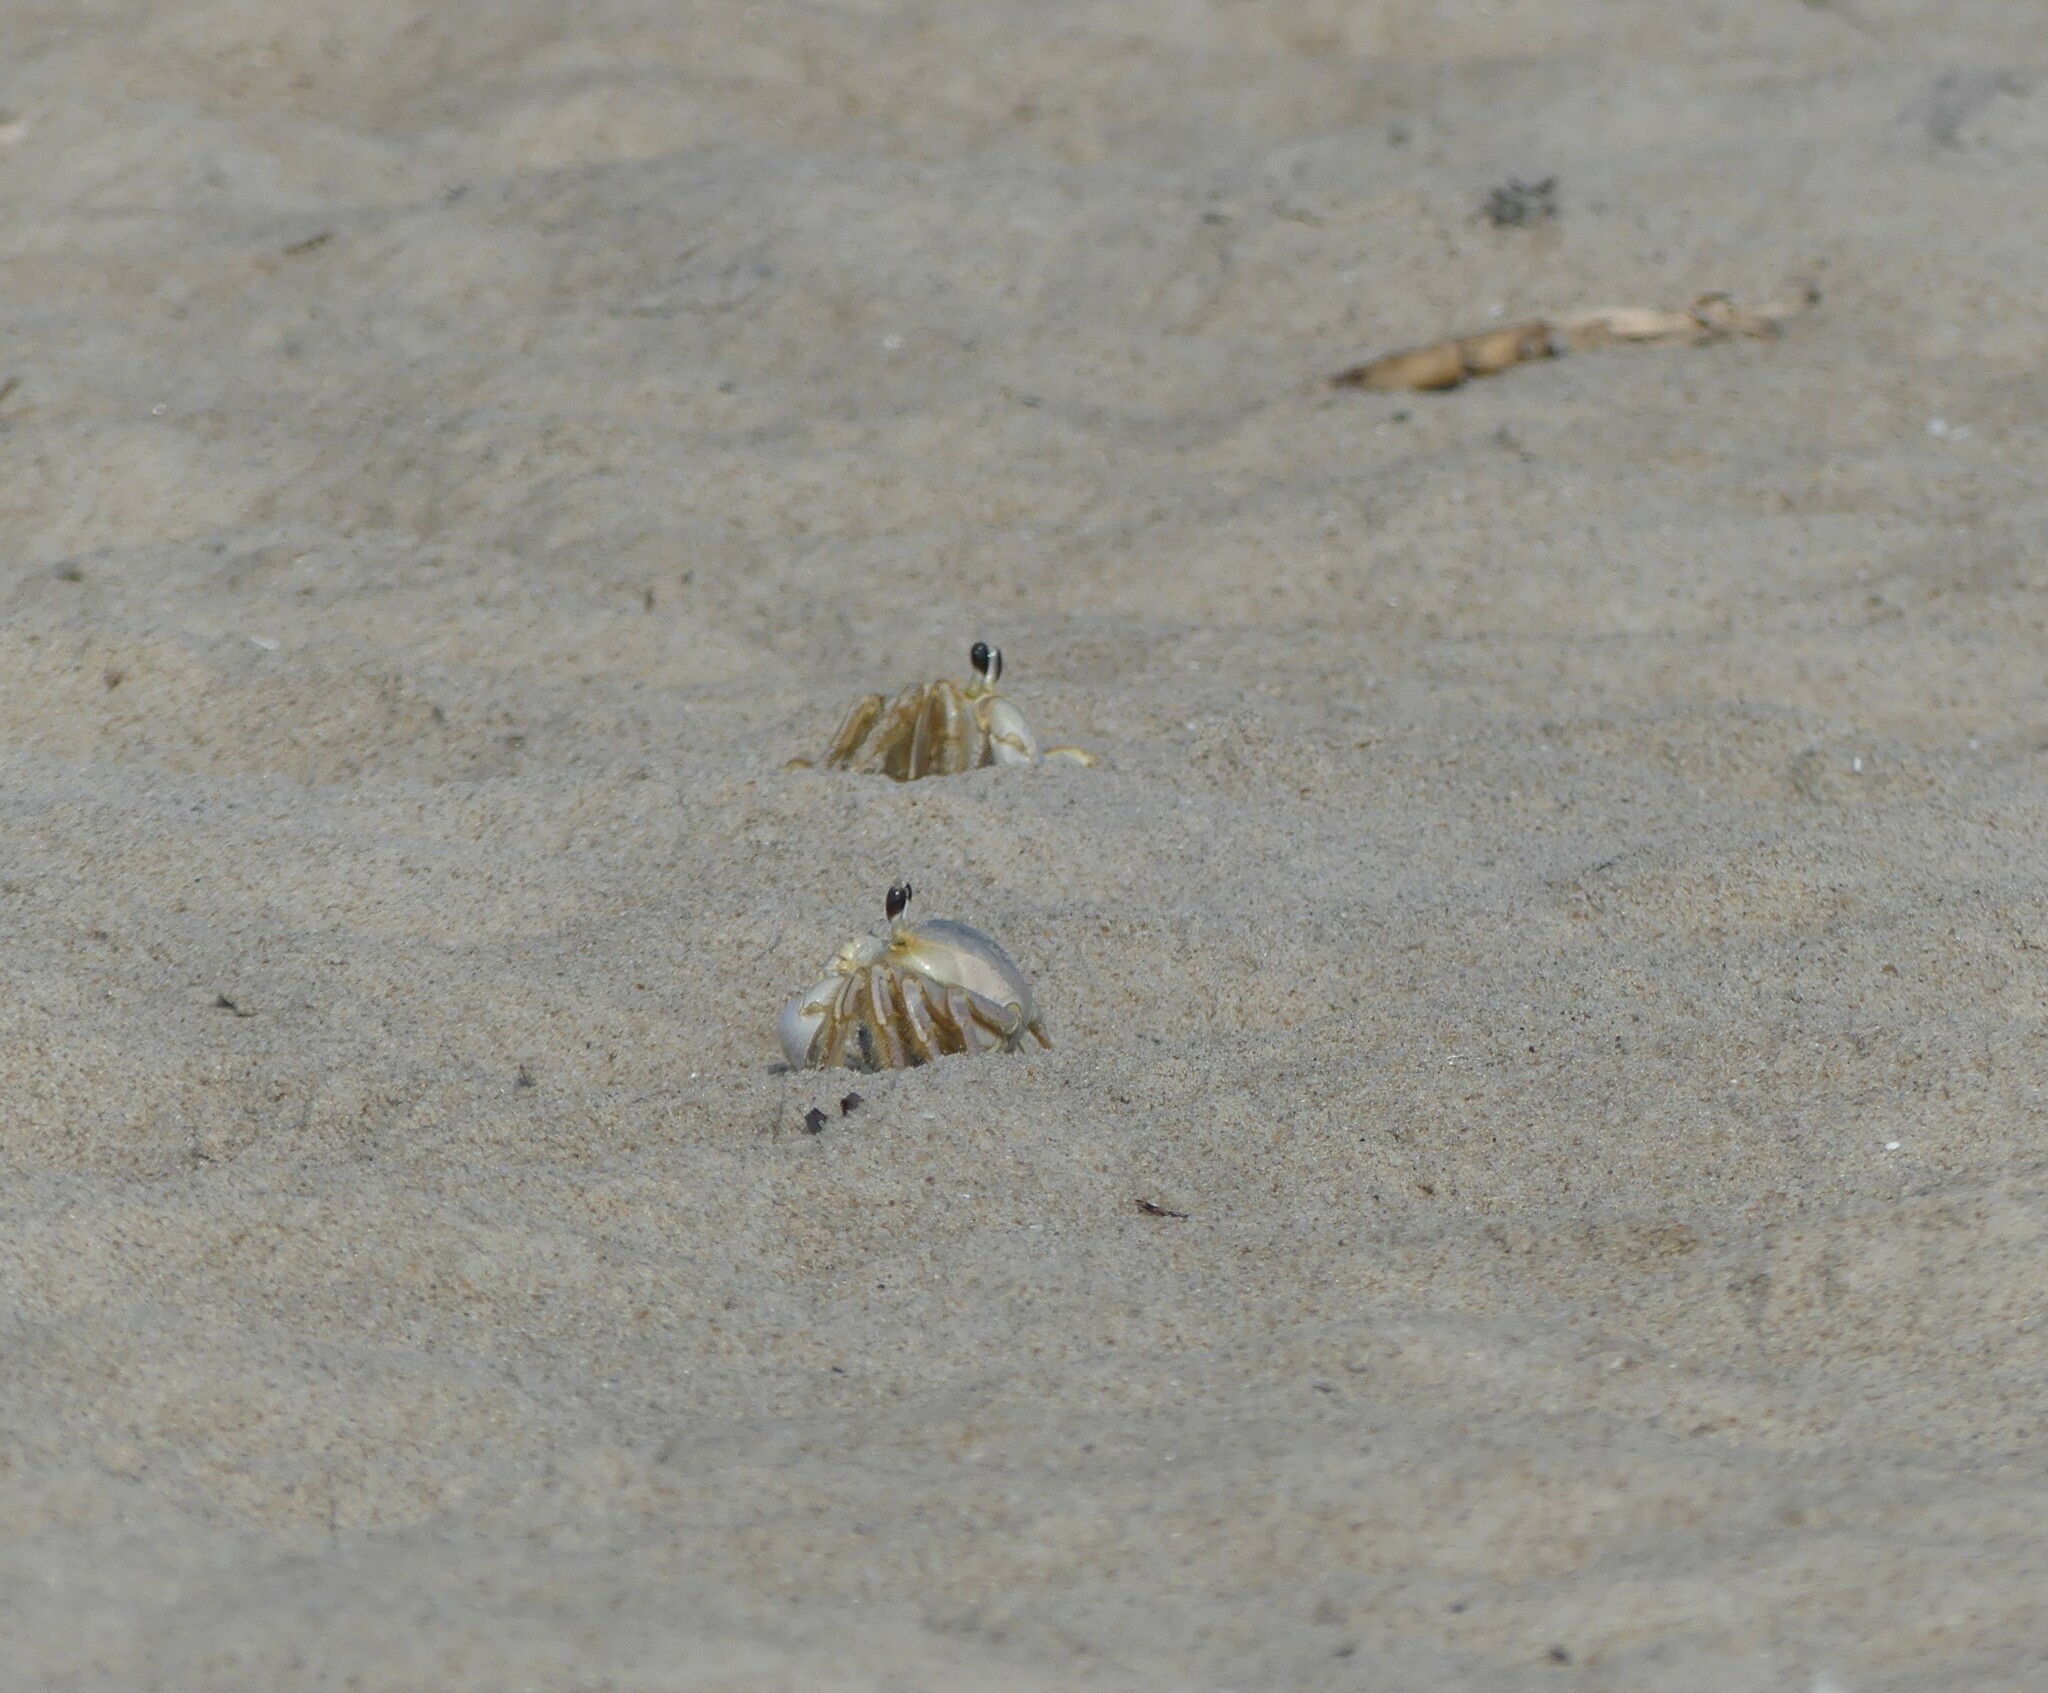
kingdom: Animalia
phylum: Arthropoda
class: Malacostraca
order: Decapoda
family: Ocypodidae
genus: Ocypode
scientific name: Ocypode quadrata
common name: Ghost crab
